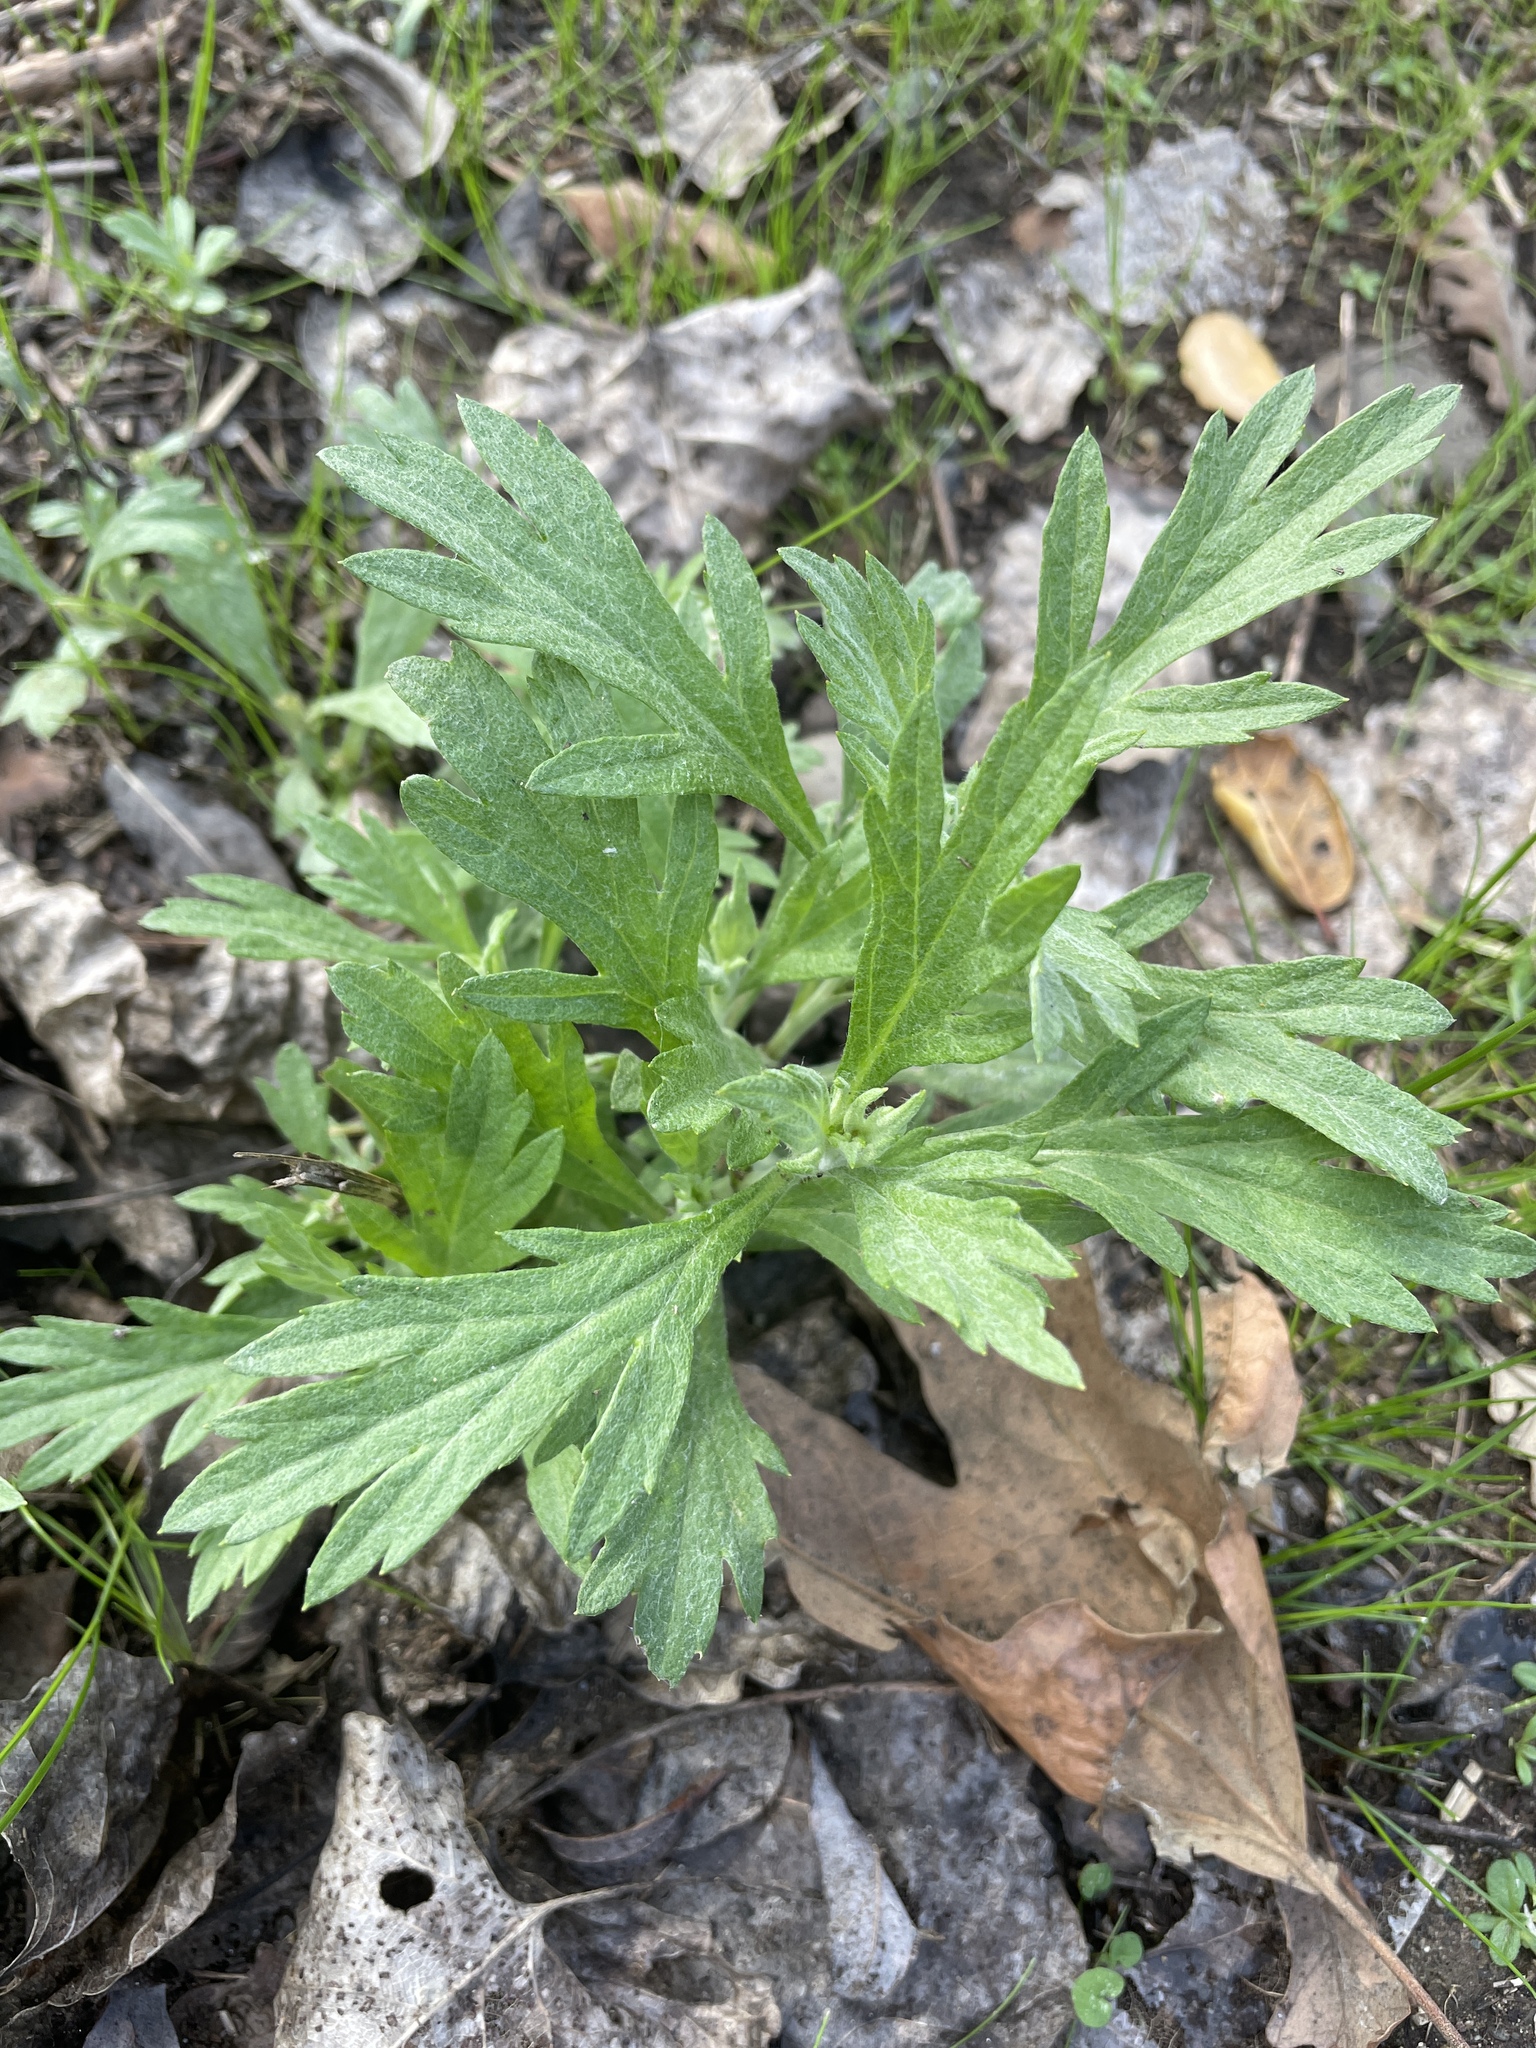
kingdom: Plantae
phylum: Tracheophyta
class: Magnoliopsida
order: Asterales
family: Asteraceae
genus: Artemisia
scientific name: Artemisia douglasiana
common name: Northwest mugwort
